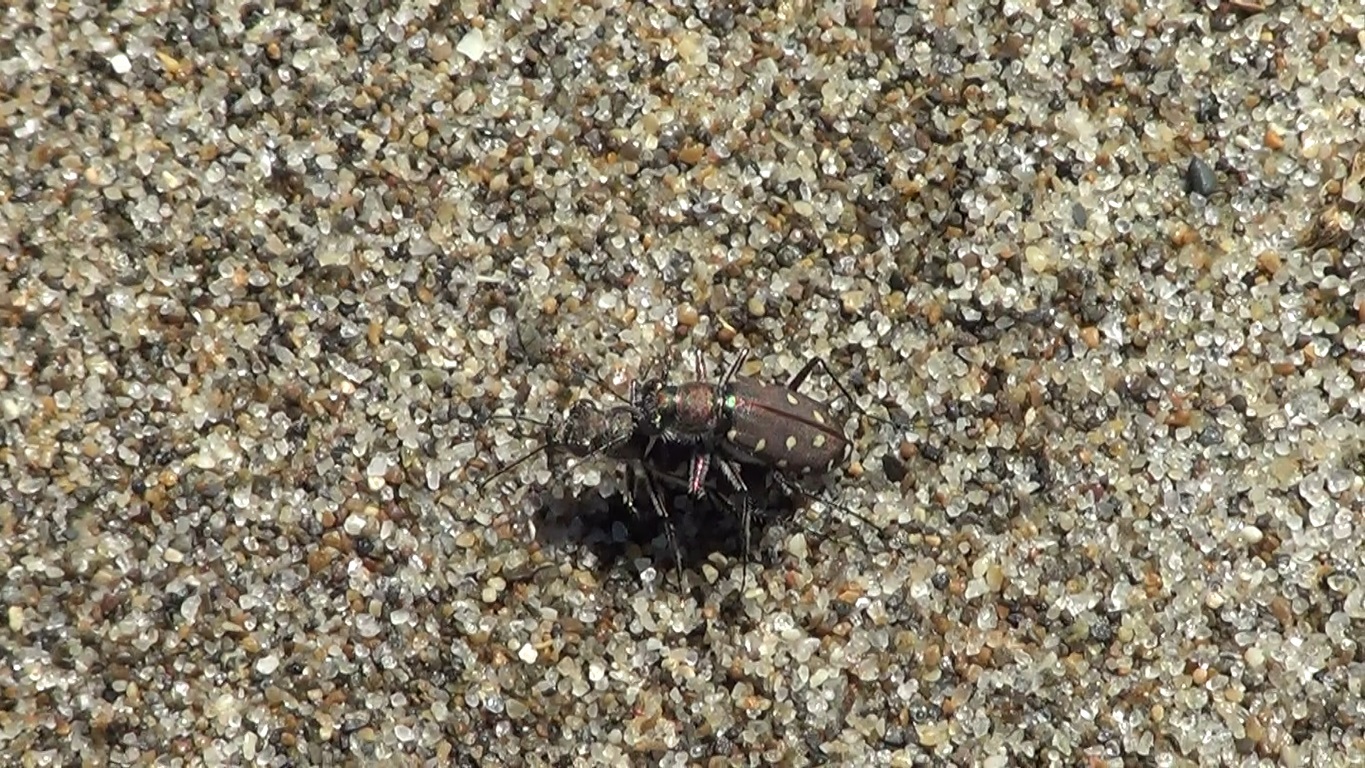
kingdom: Animalia
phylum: Arthropoda
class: Insecta
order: Coleoptera
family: Carabidae
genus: Cicindela
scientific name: Cicindela littoralis
